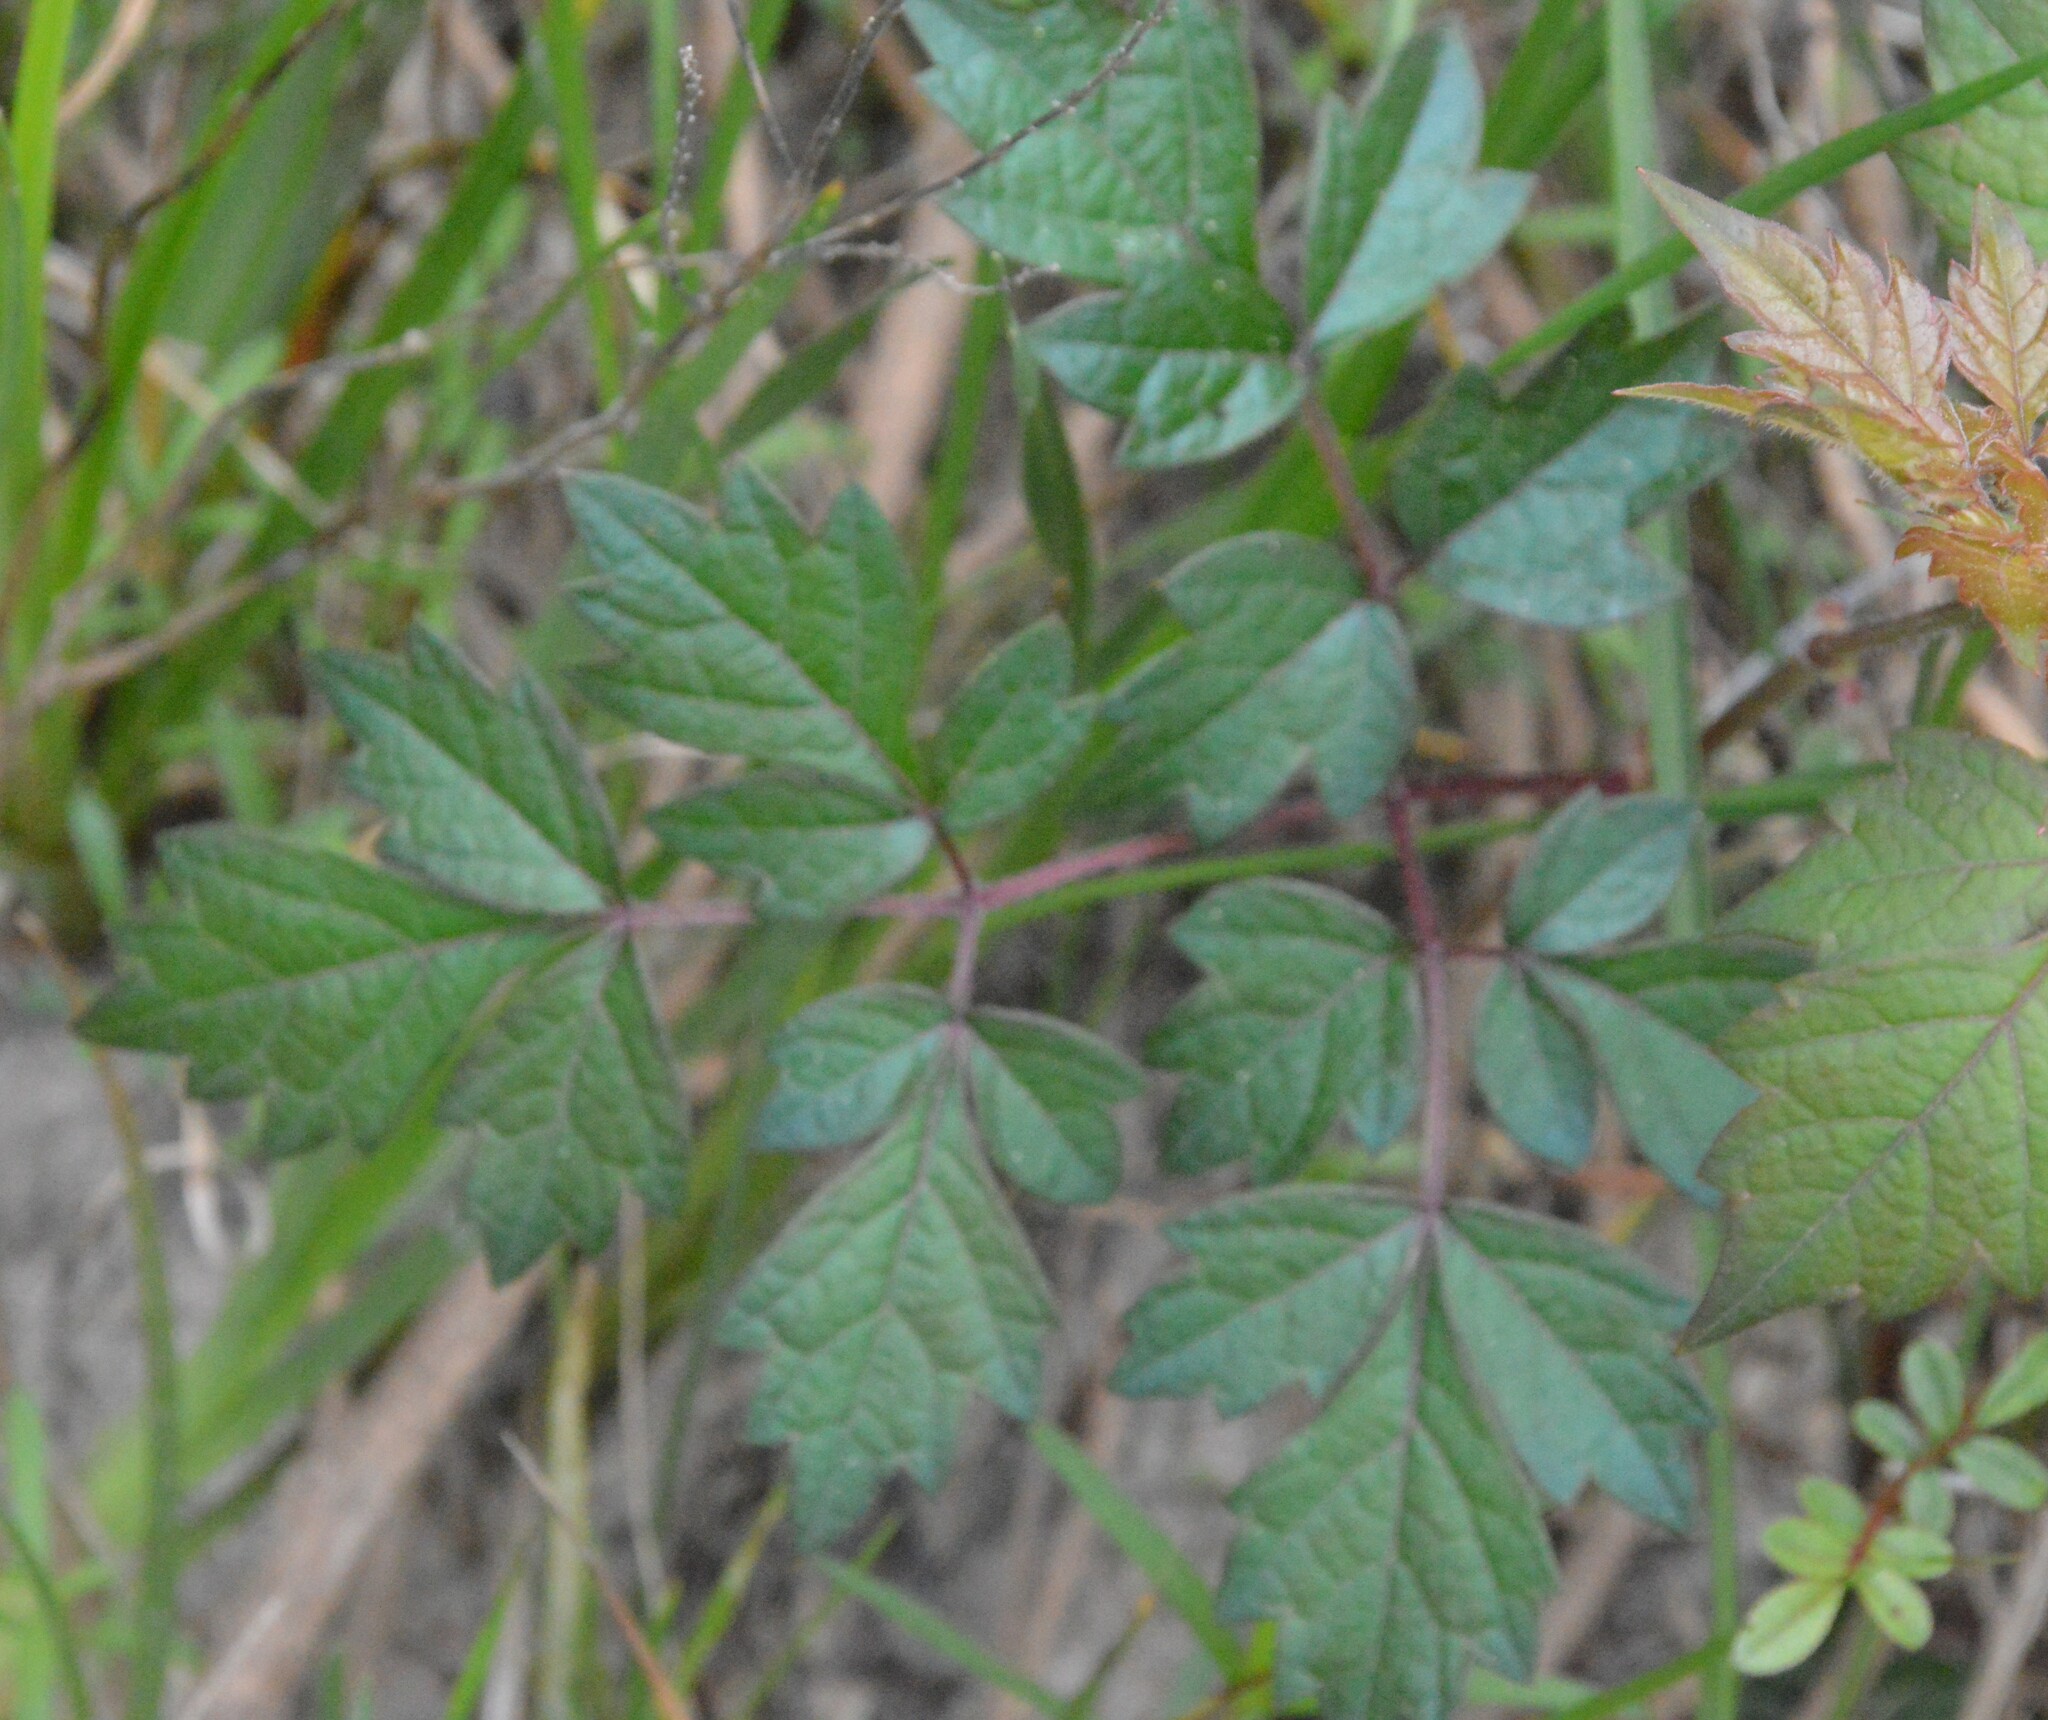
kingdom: Plantae
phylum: Tracheophyta
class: Magnoliopsida
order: Vitales
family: Vitaceae
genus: Nekemias
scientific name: Nekemias arborea
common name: Peppervine
